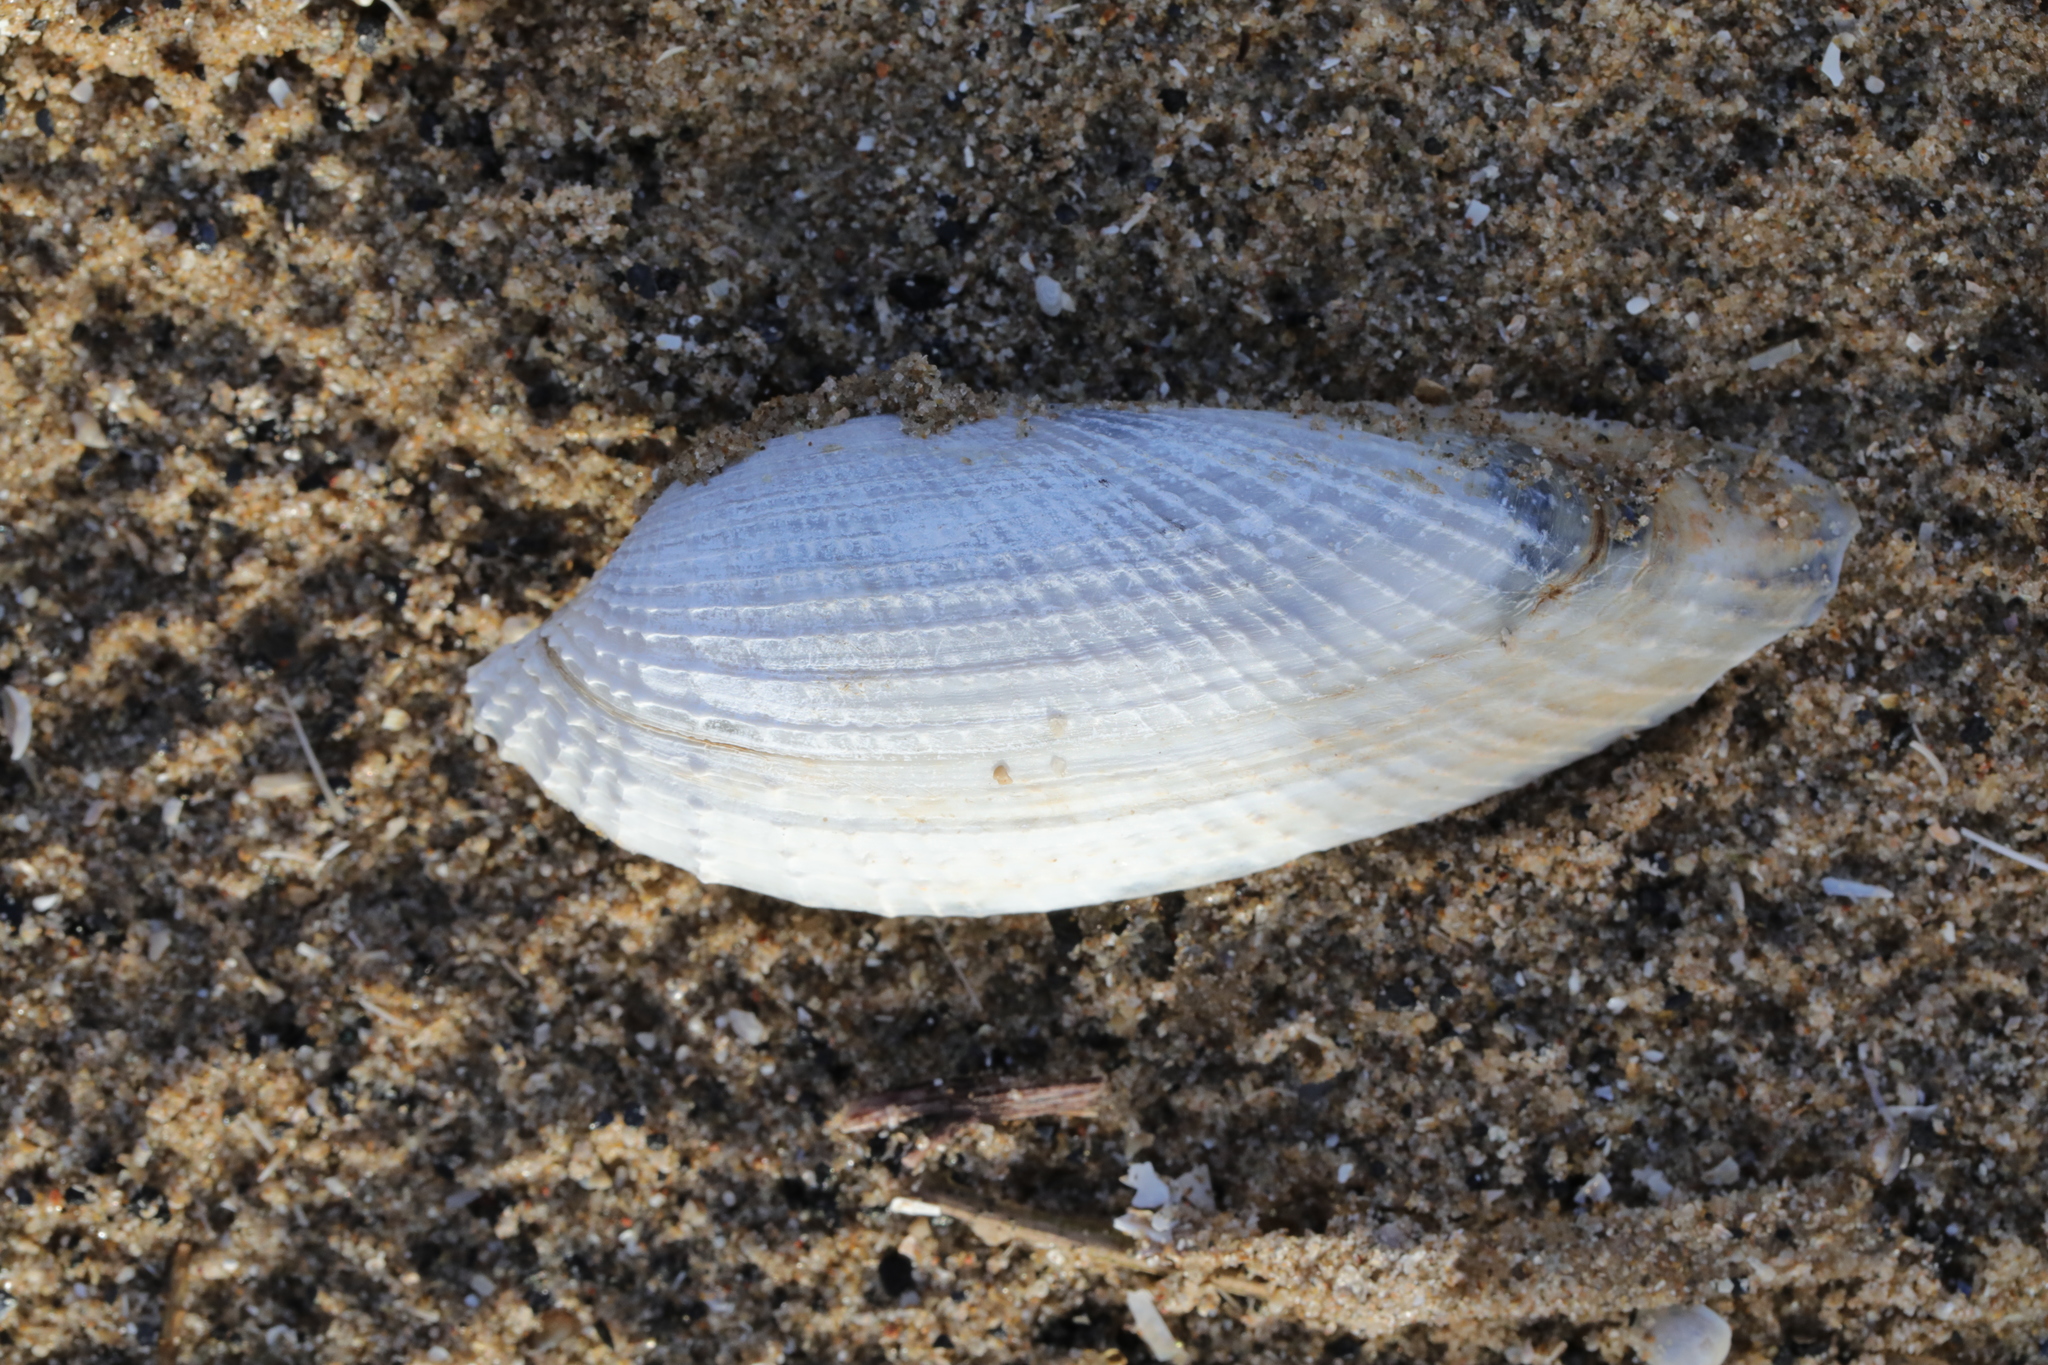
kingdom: Animalia
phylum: Mollusca
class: Bivalvia
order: Myida
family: Pholadidae
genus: Barnea
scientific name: Barnea candida
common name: White piddock
